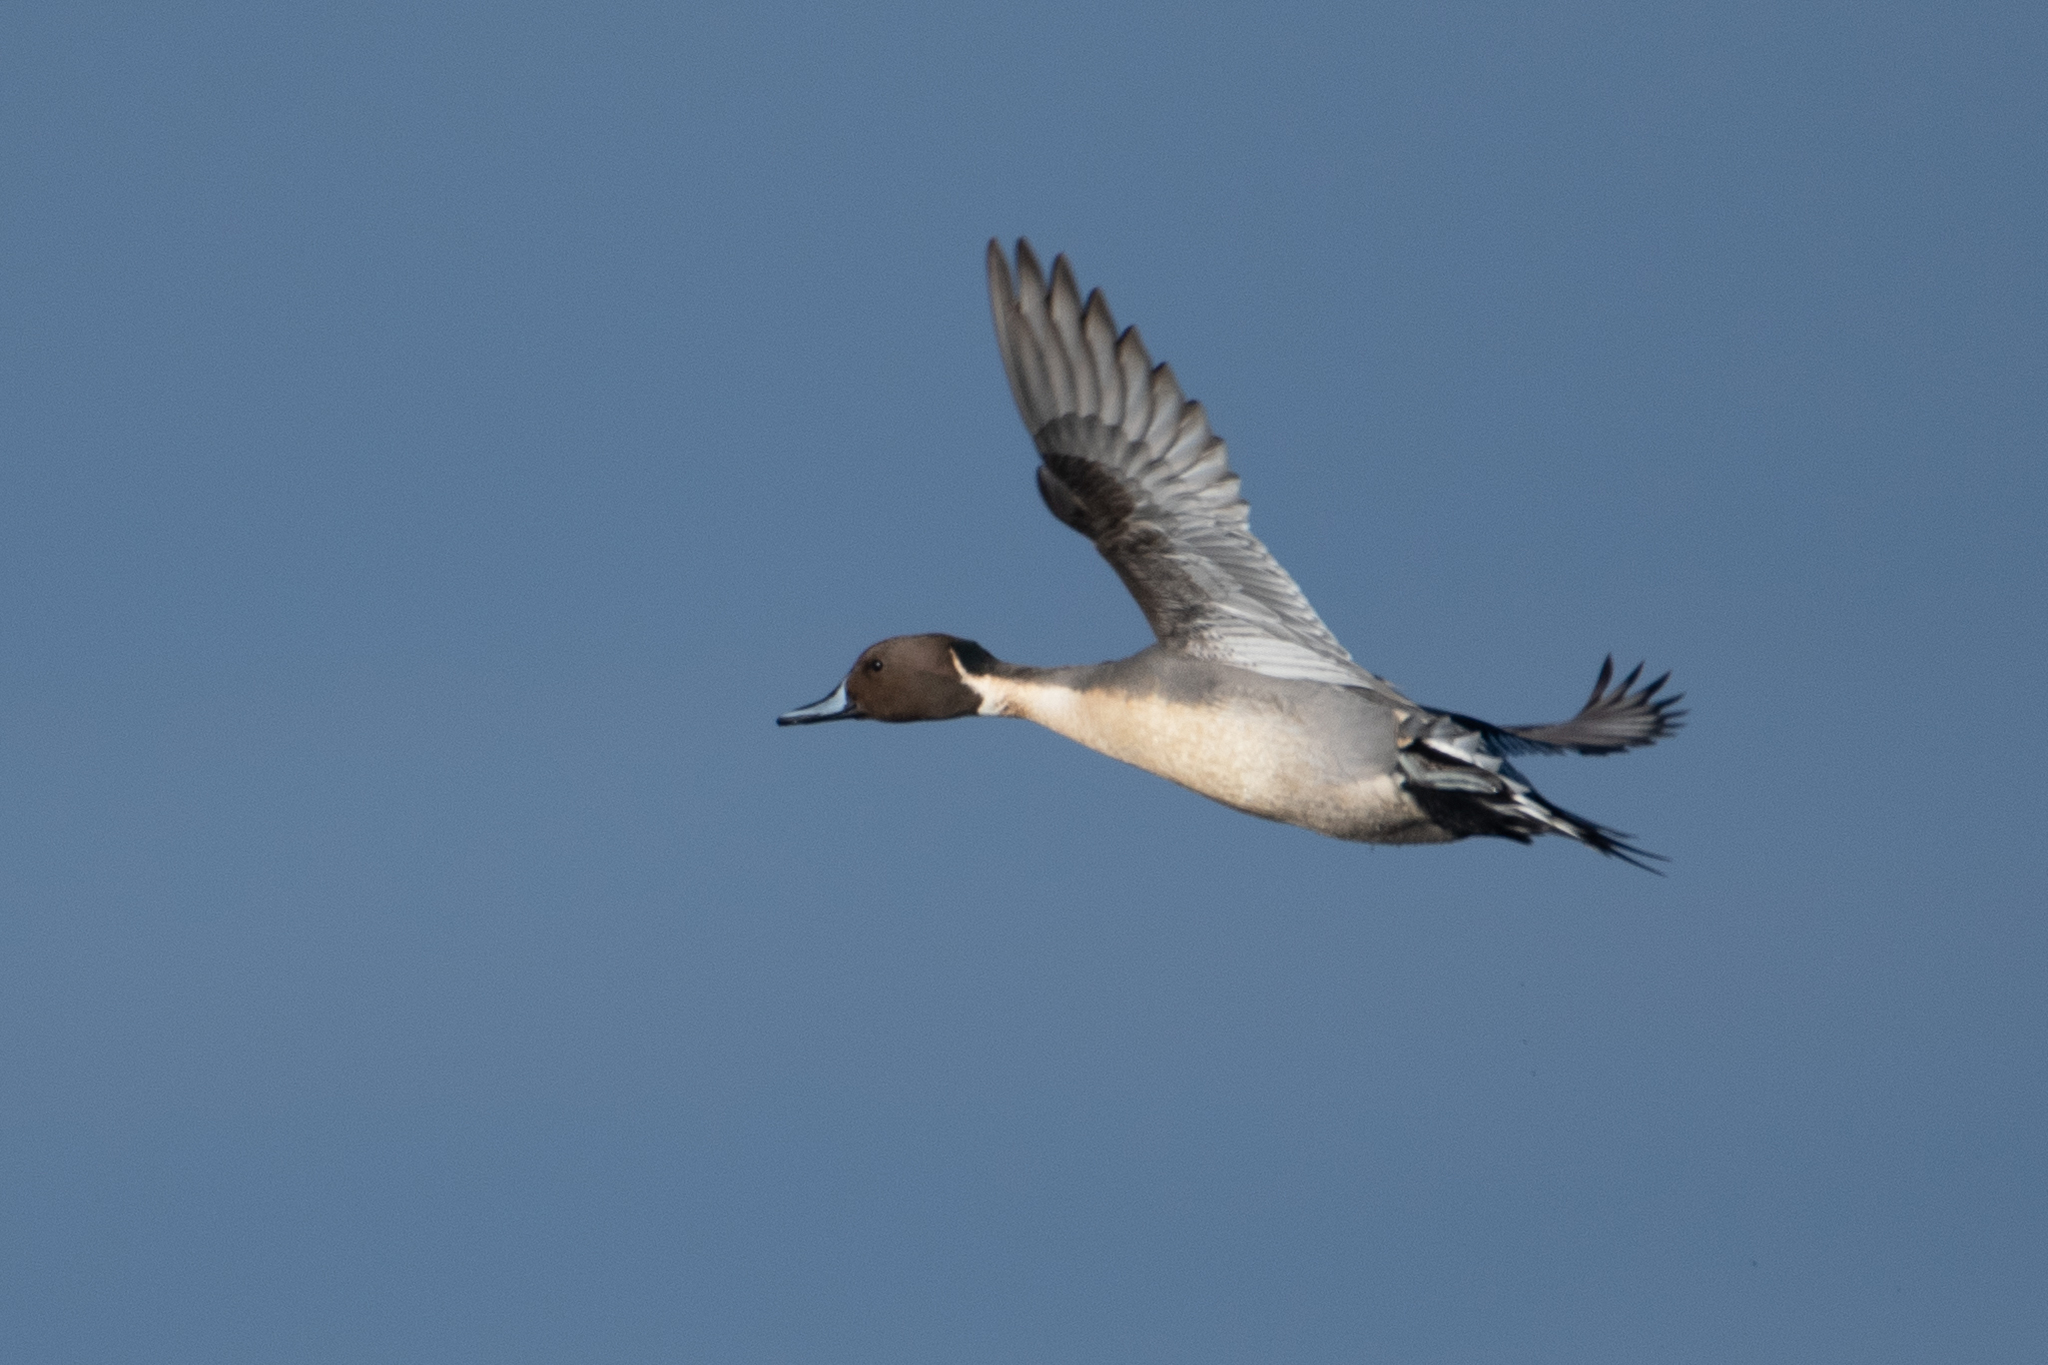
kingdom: Animalia
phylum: Chordata
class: Aves
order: Anseriformes
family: Anatidae
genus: Anas
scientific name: Anas acuta
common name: Northern pintail
